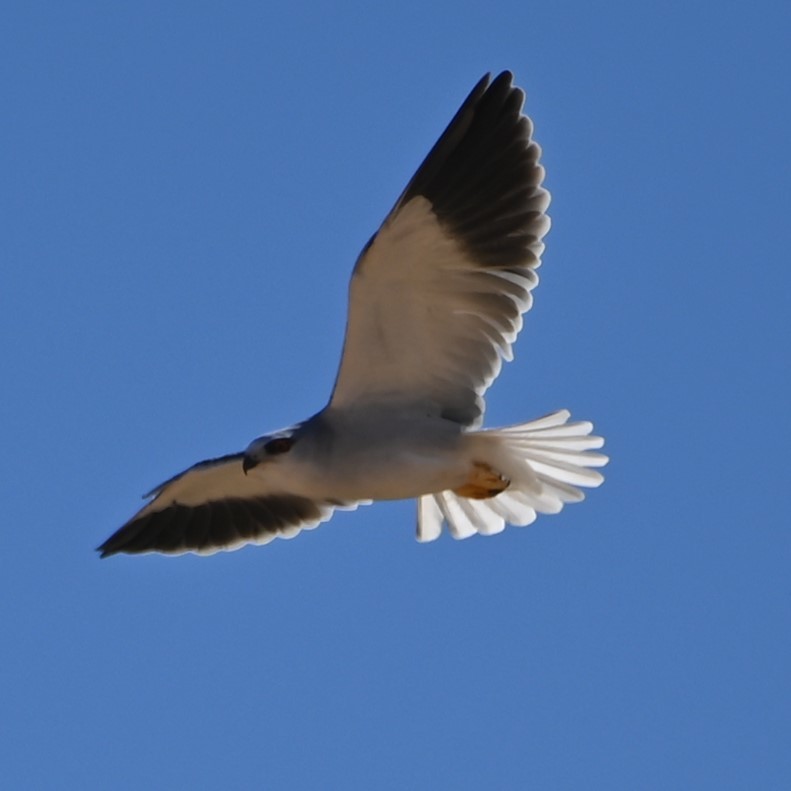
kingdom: Animalia
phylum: Chordata
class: Aves
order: Accipitriformes
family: Accipitridae
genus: Elanus
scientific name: Elanus caeruleus
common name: Black-winged kite
